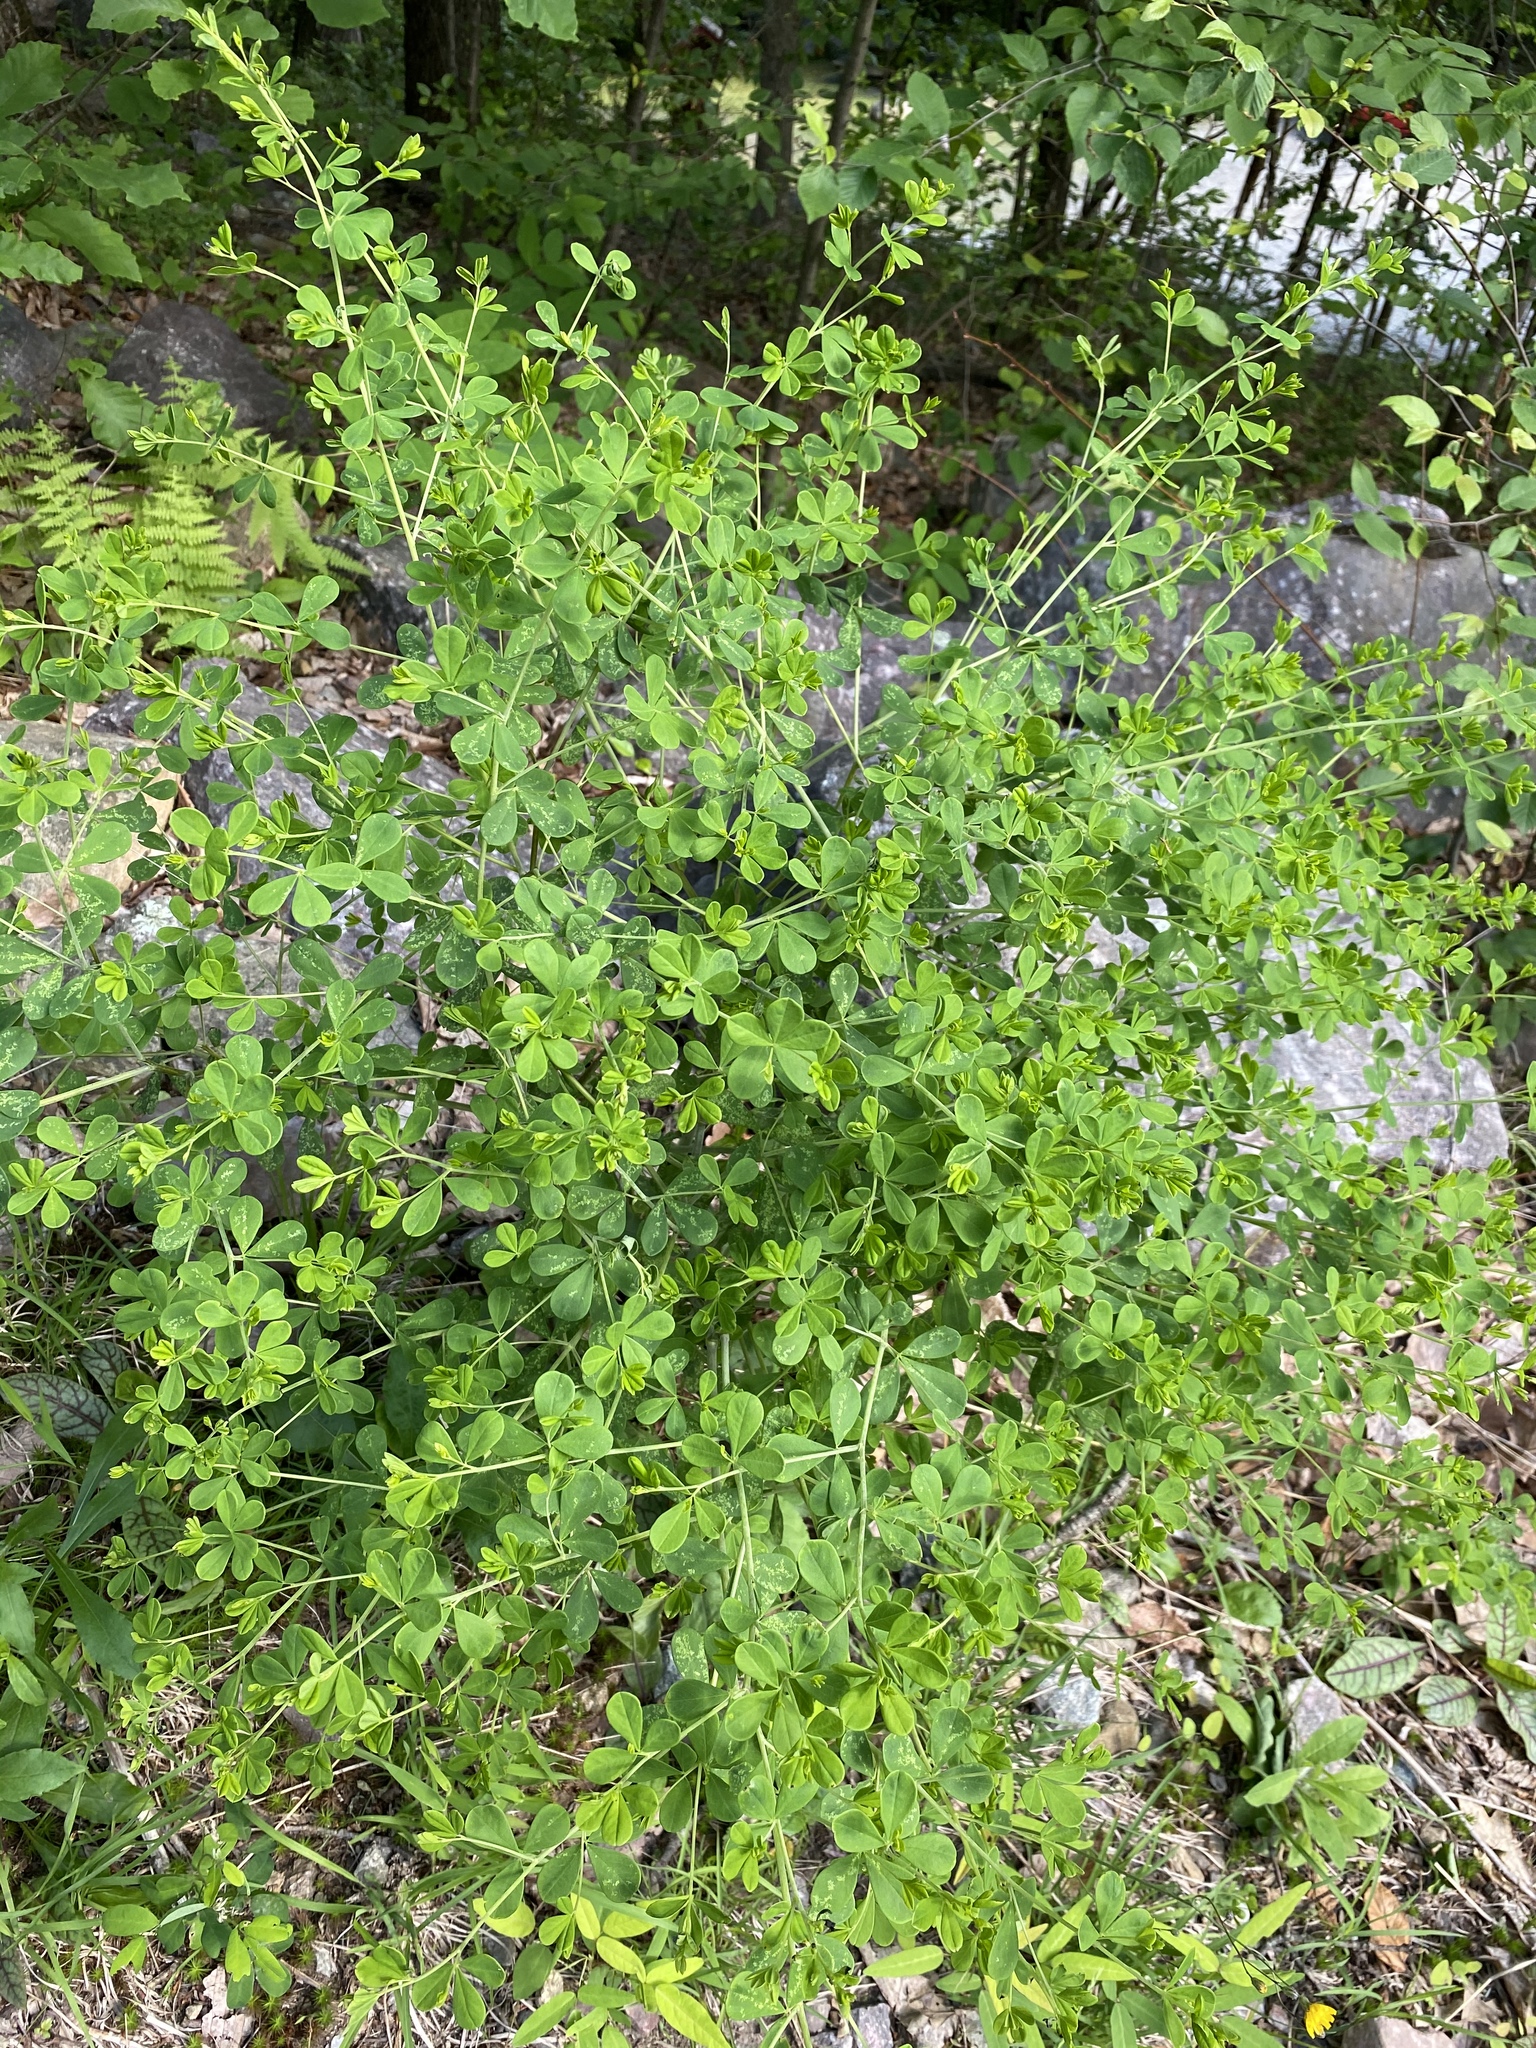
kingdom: Plantae
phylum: Tracheophyta
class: Magnoliopsida
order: Fabales
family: Fabaceae
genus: Baptisia
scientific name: Baptisia tinctoria
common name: Wild indigo
